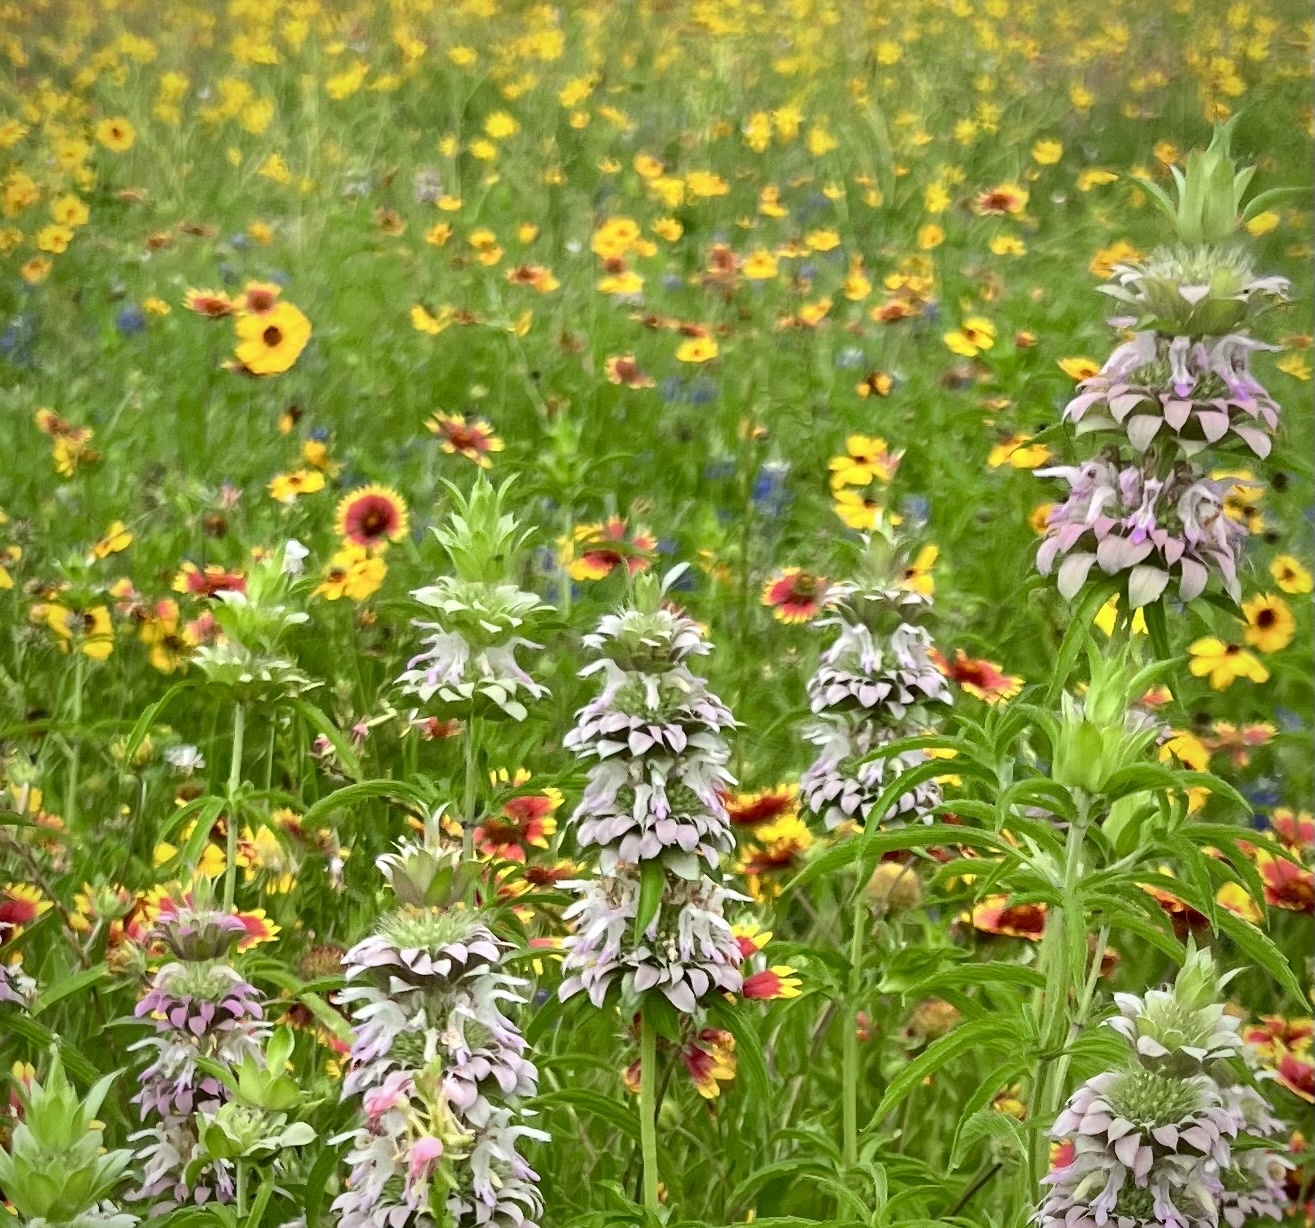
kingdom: Plantae
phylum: Tracheophyta
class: Magnoliopsida
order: Lamiales
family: Lamiaceae
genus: Monarda
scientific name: Monarda citriodora
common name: Lemon beebalm
